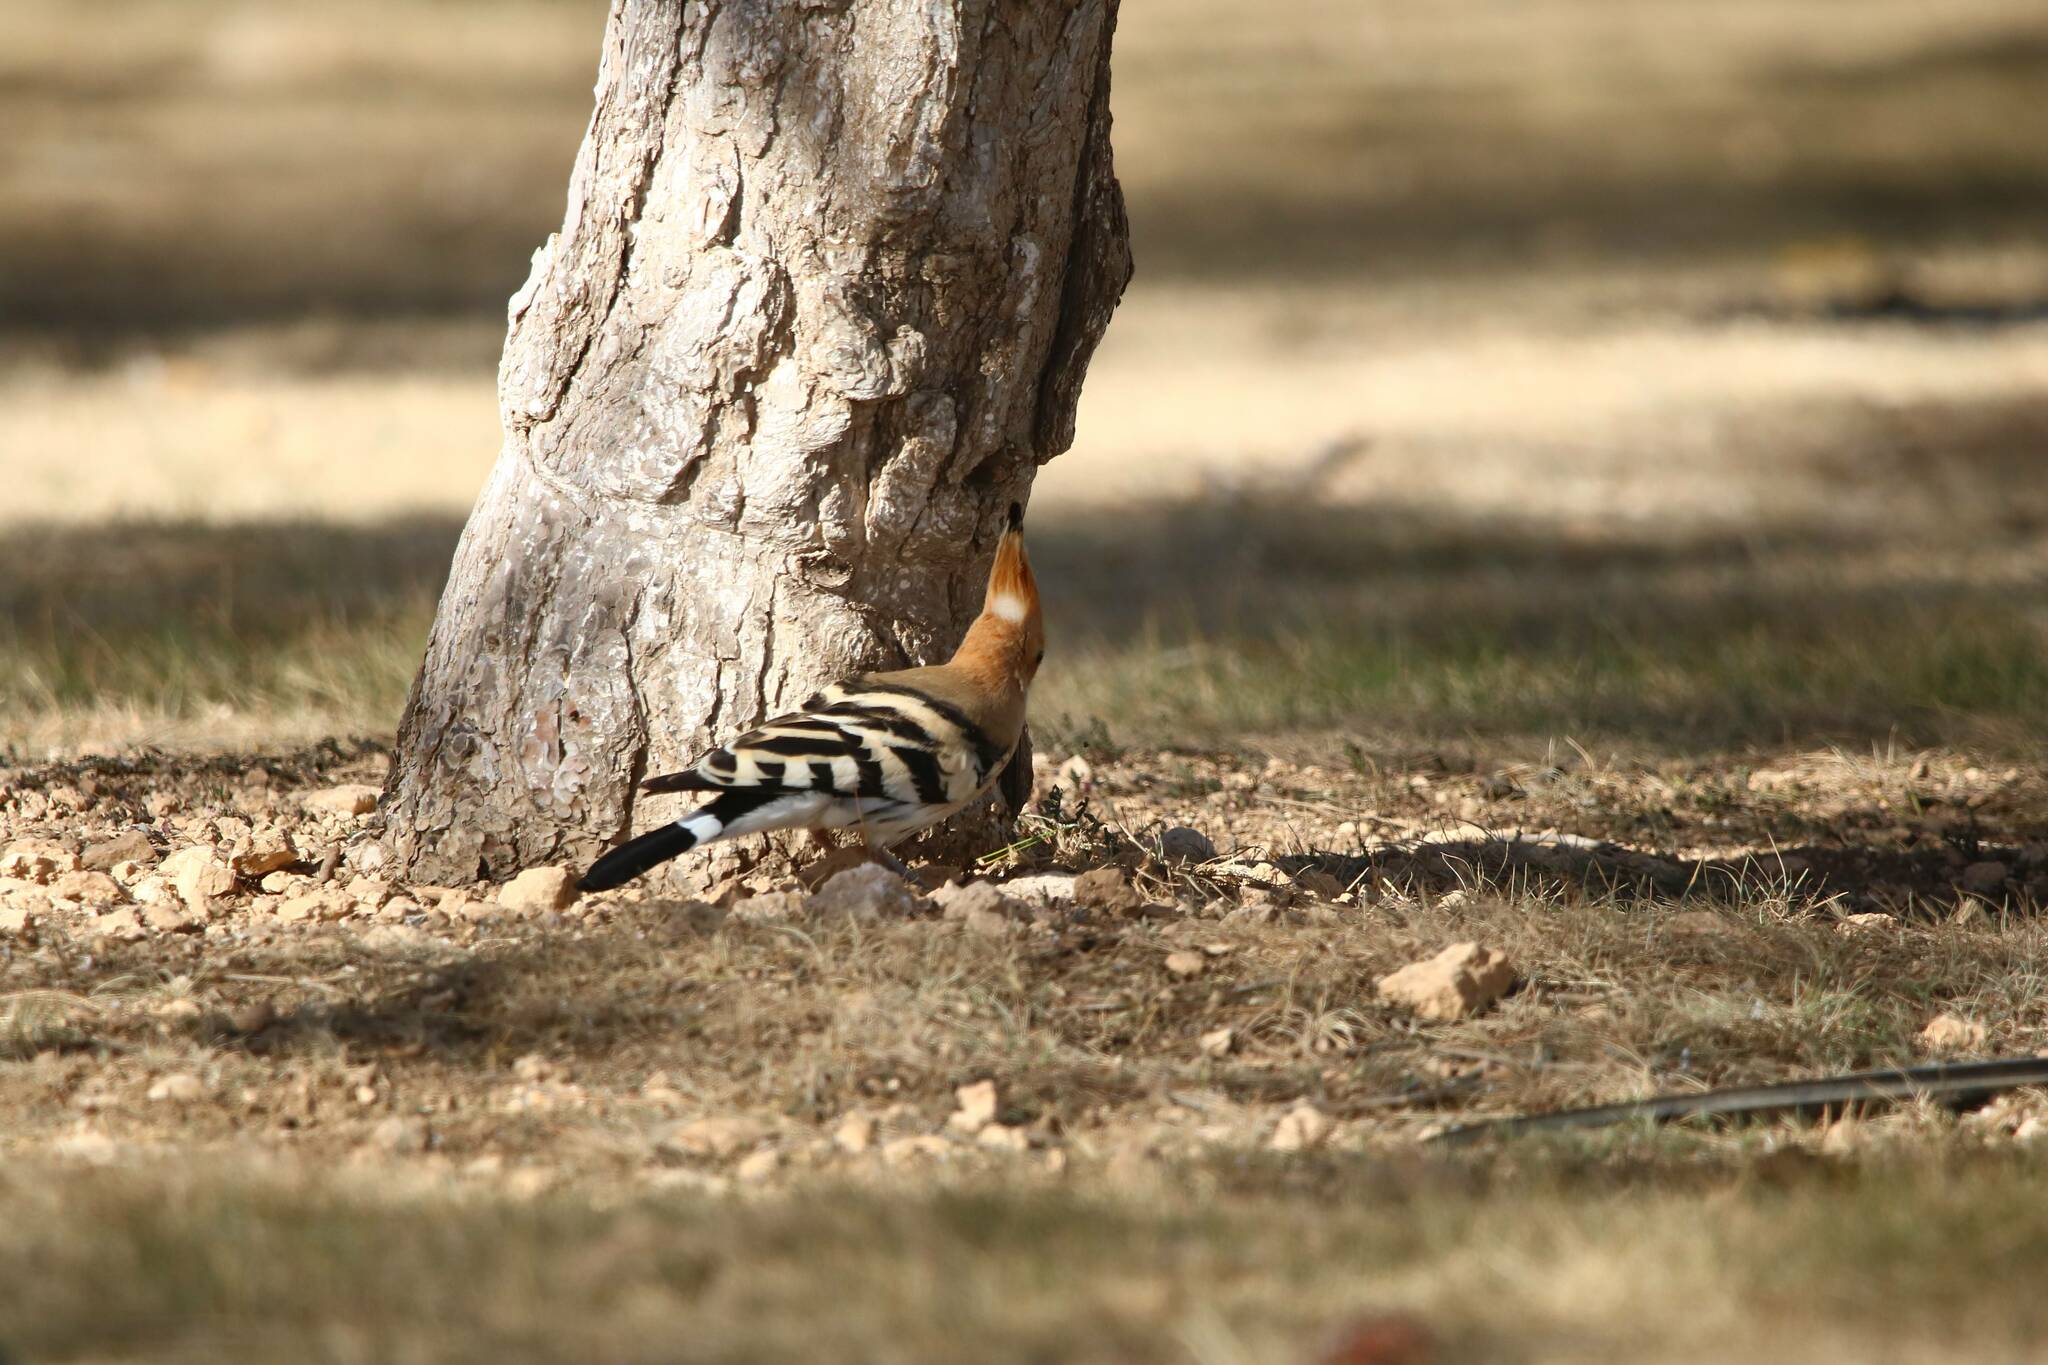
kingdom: Animalia
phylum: Chordata
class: Aves
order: Bucerotiformes
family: Upupidae
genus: Upupa
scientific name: Upupa epops
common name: Eurasian hoopoe
